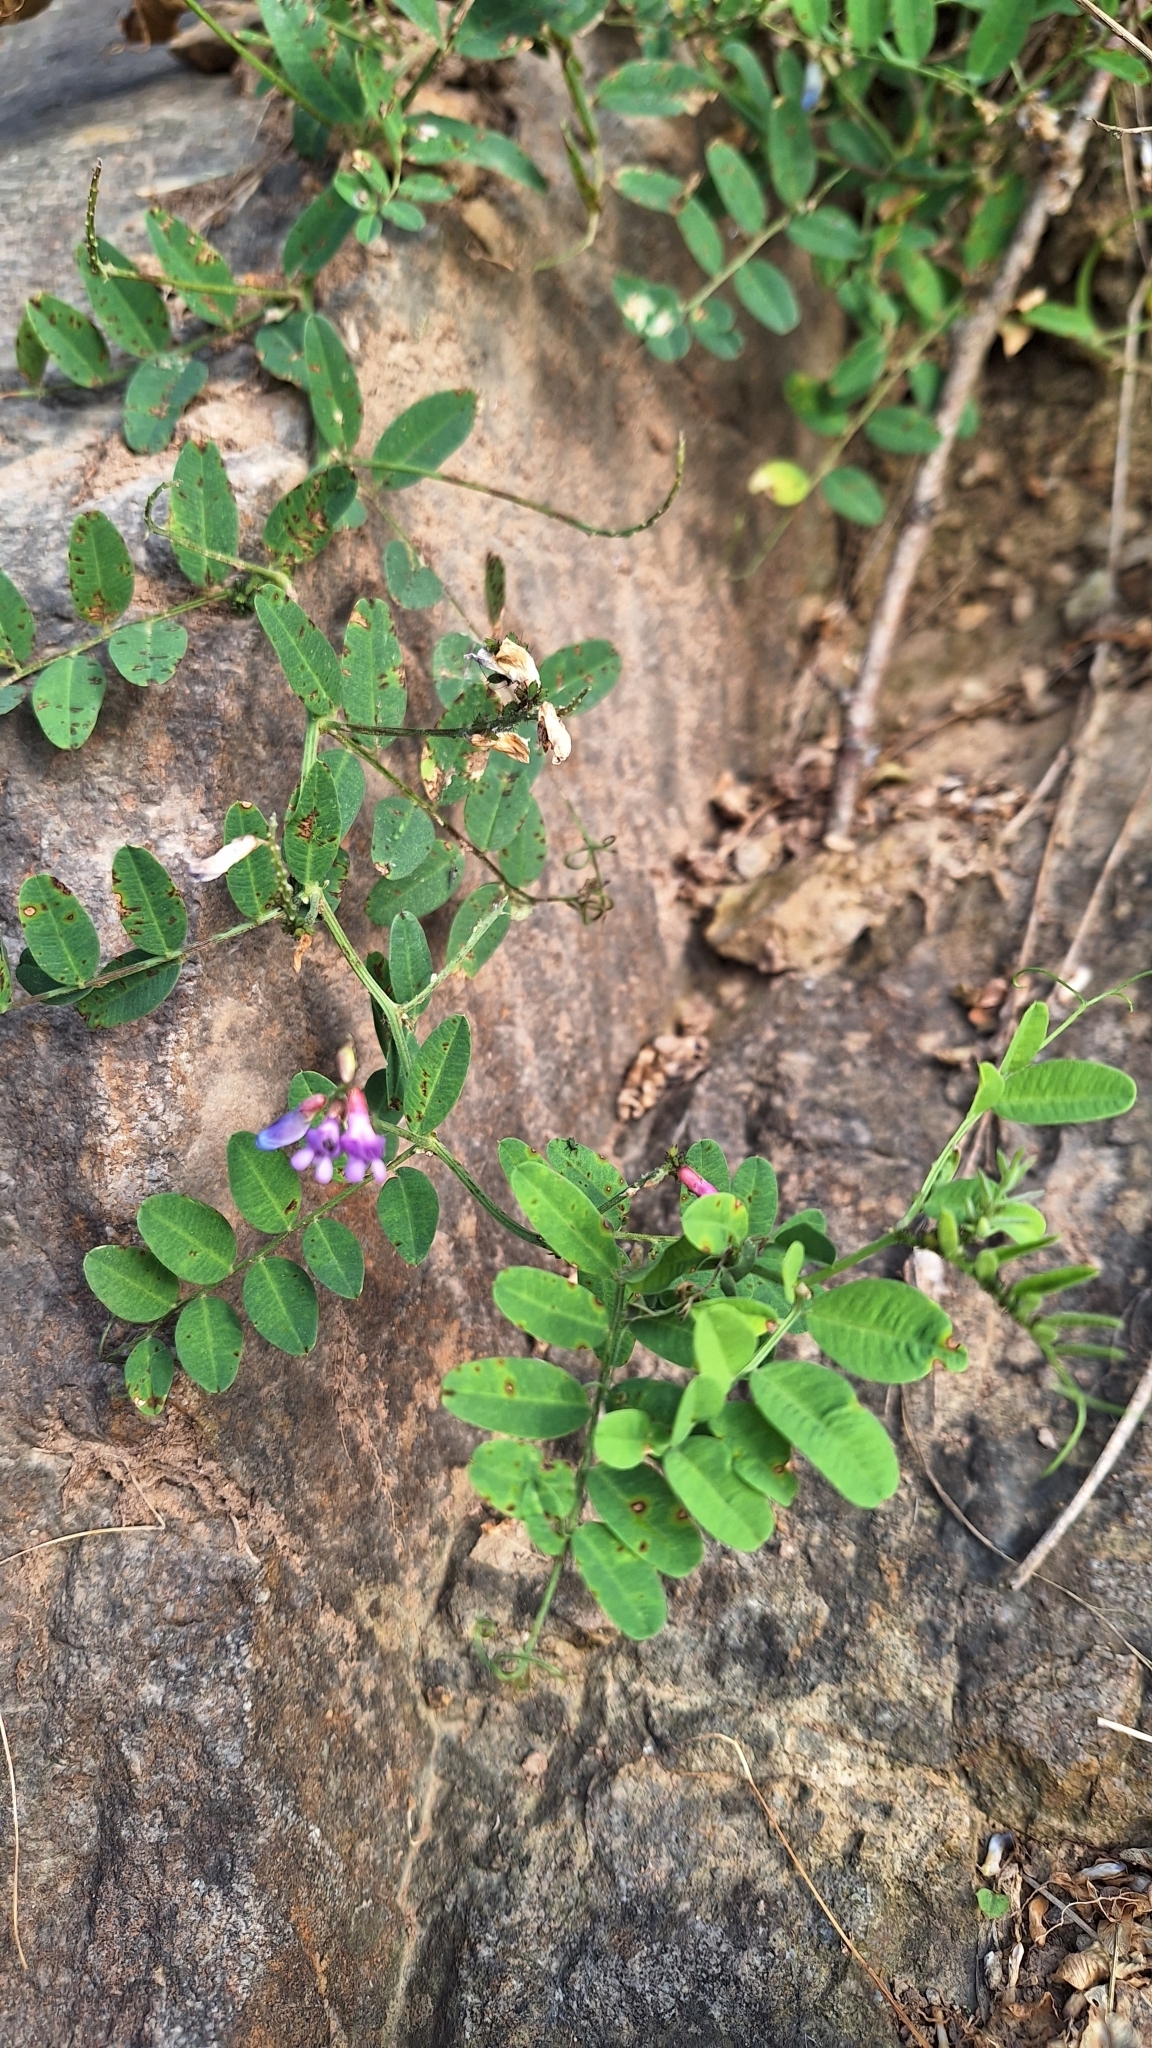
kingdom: Plantae
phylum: Tracheophyta
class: Magnoliopsida
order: Fabales
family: Fabaceae
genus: Vicia
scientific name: Vicia amurensis
